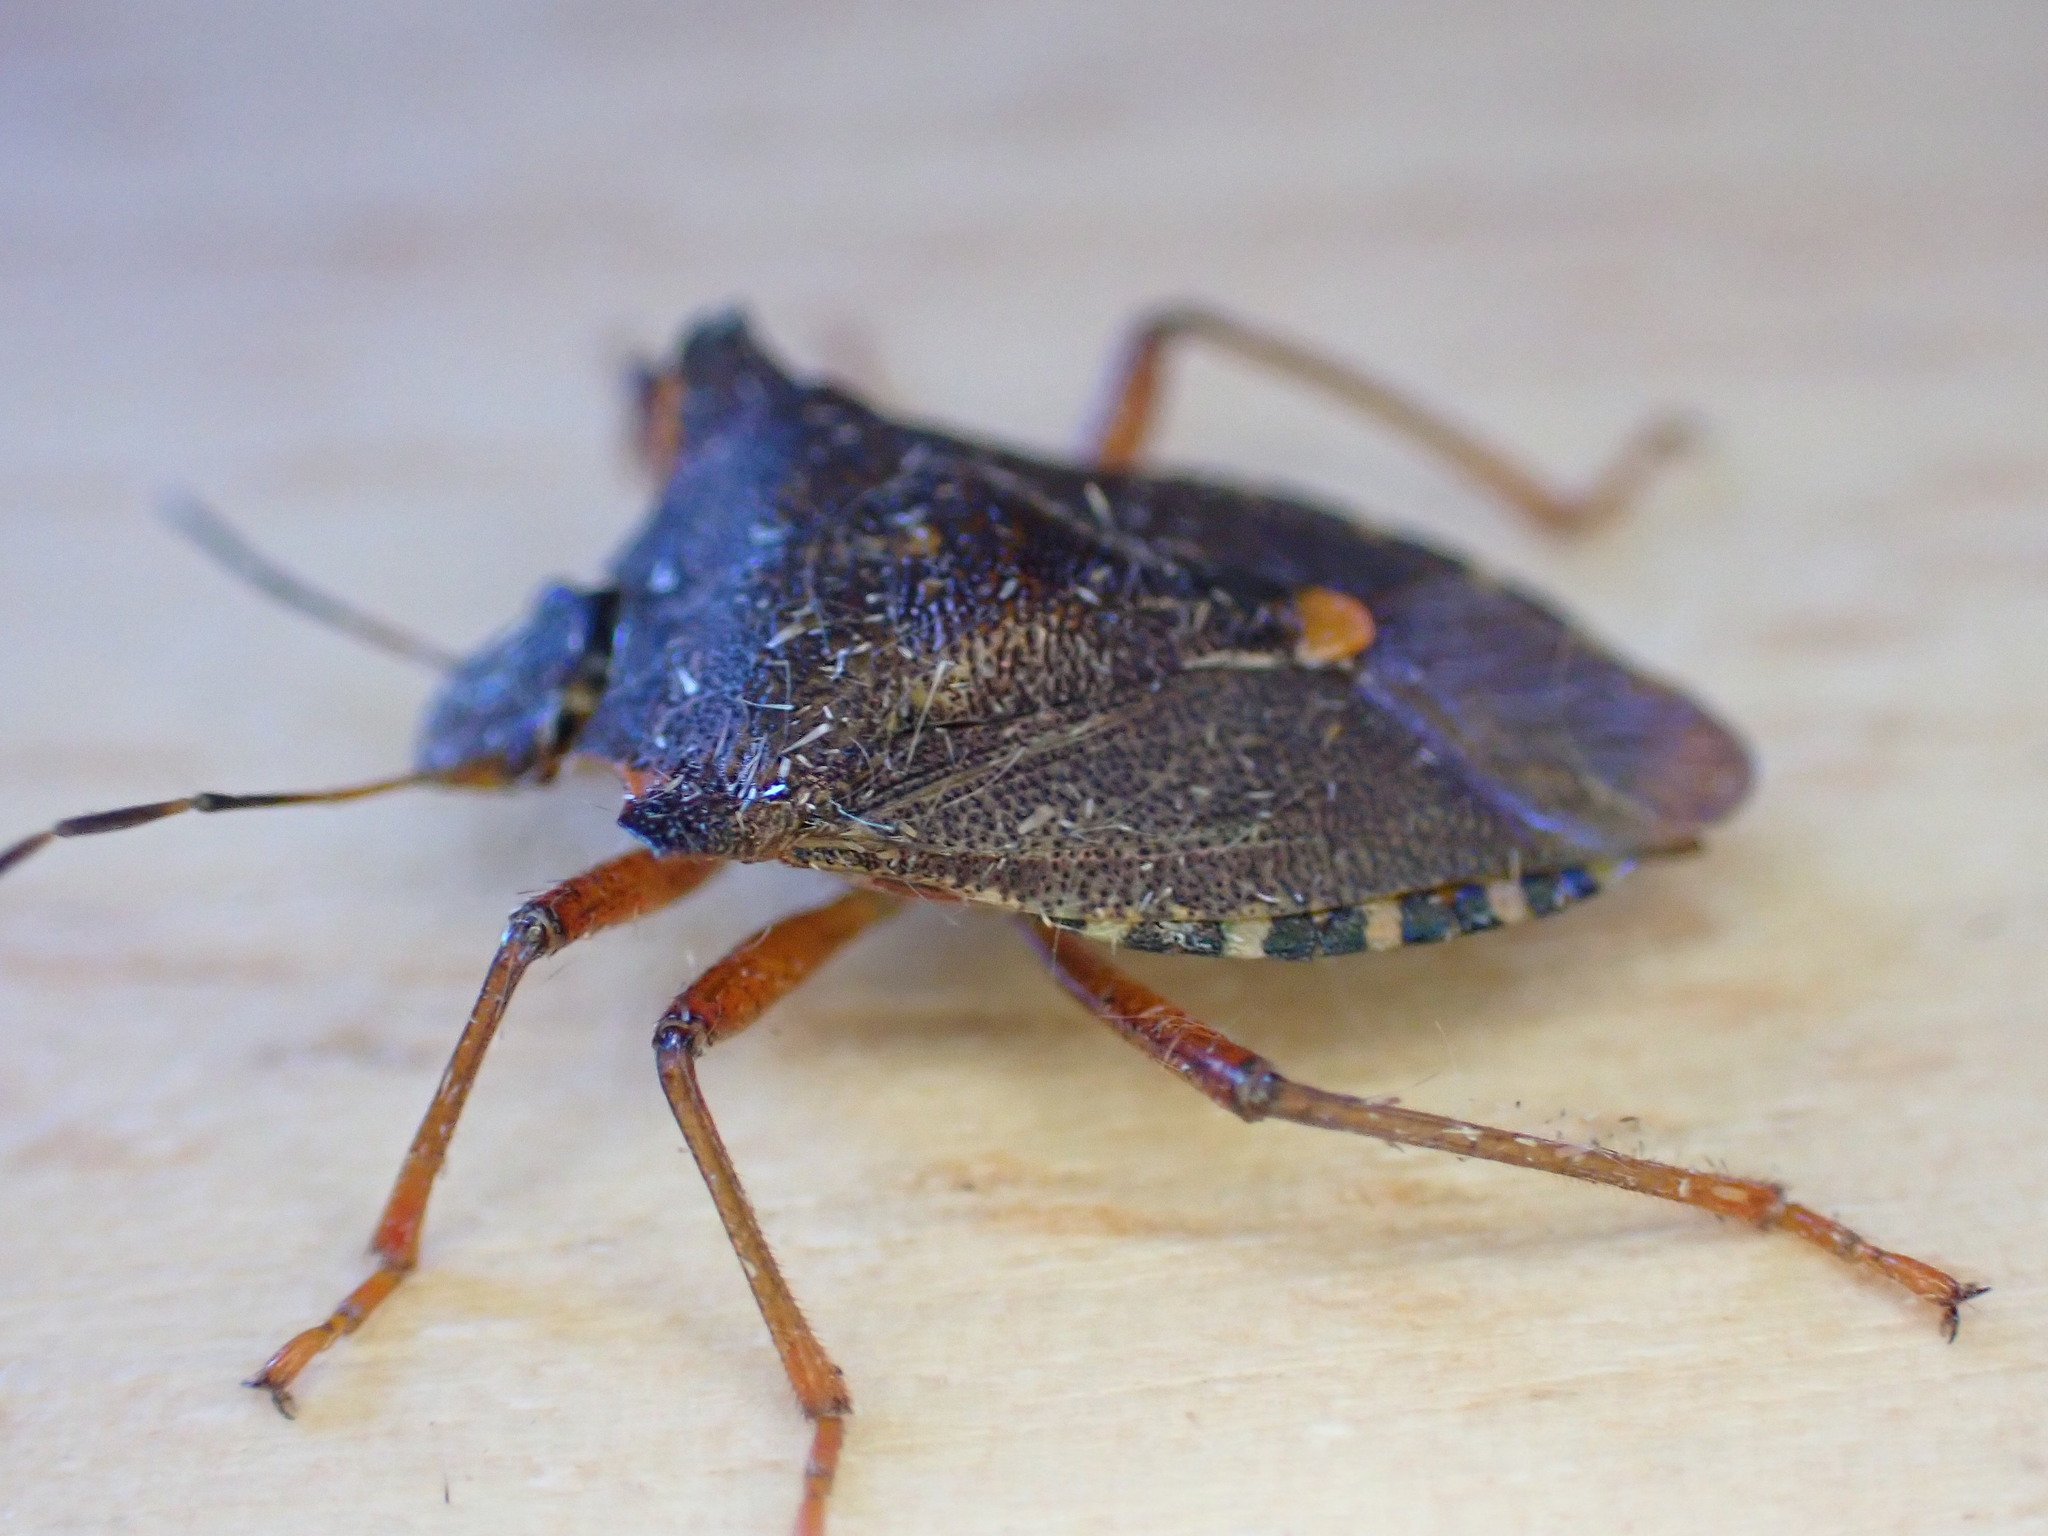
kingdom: Animalia
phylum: Arthropoda
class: Insecta
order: Hemiptera
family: Pentatomidae
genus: Pentatoma
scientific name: Pentatoma rufipes
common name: Forest bug
